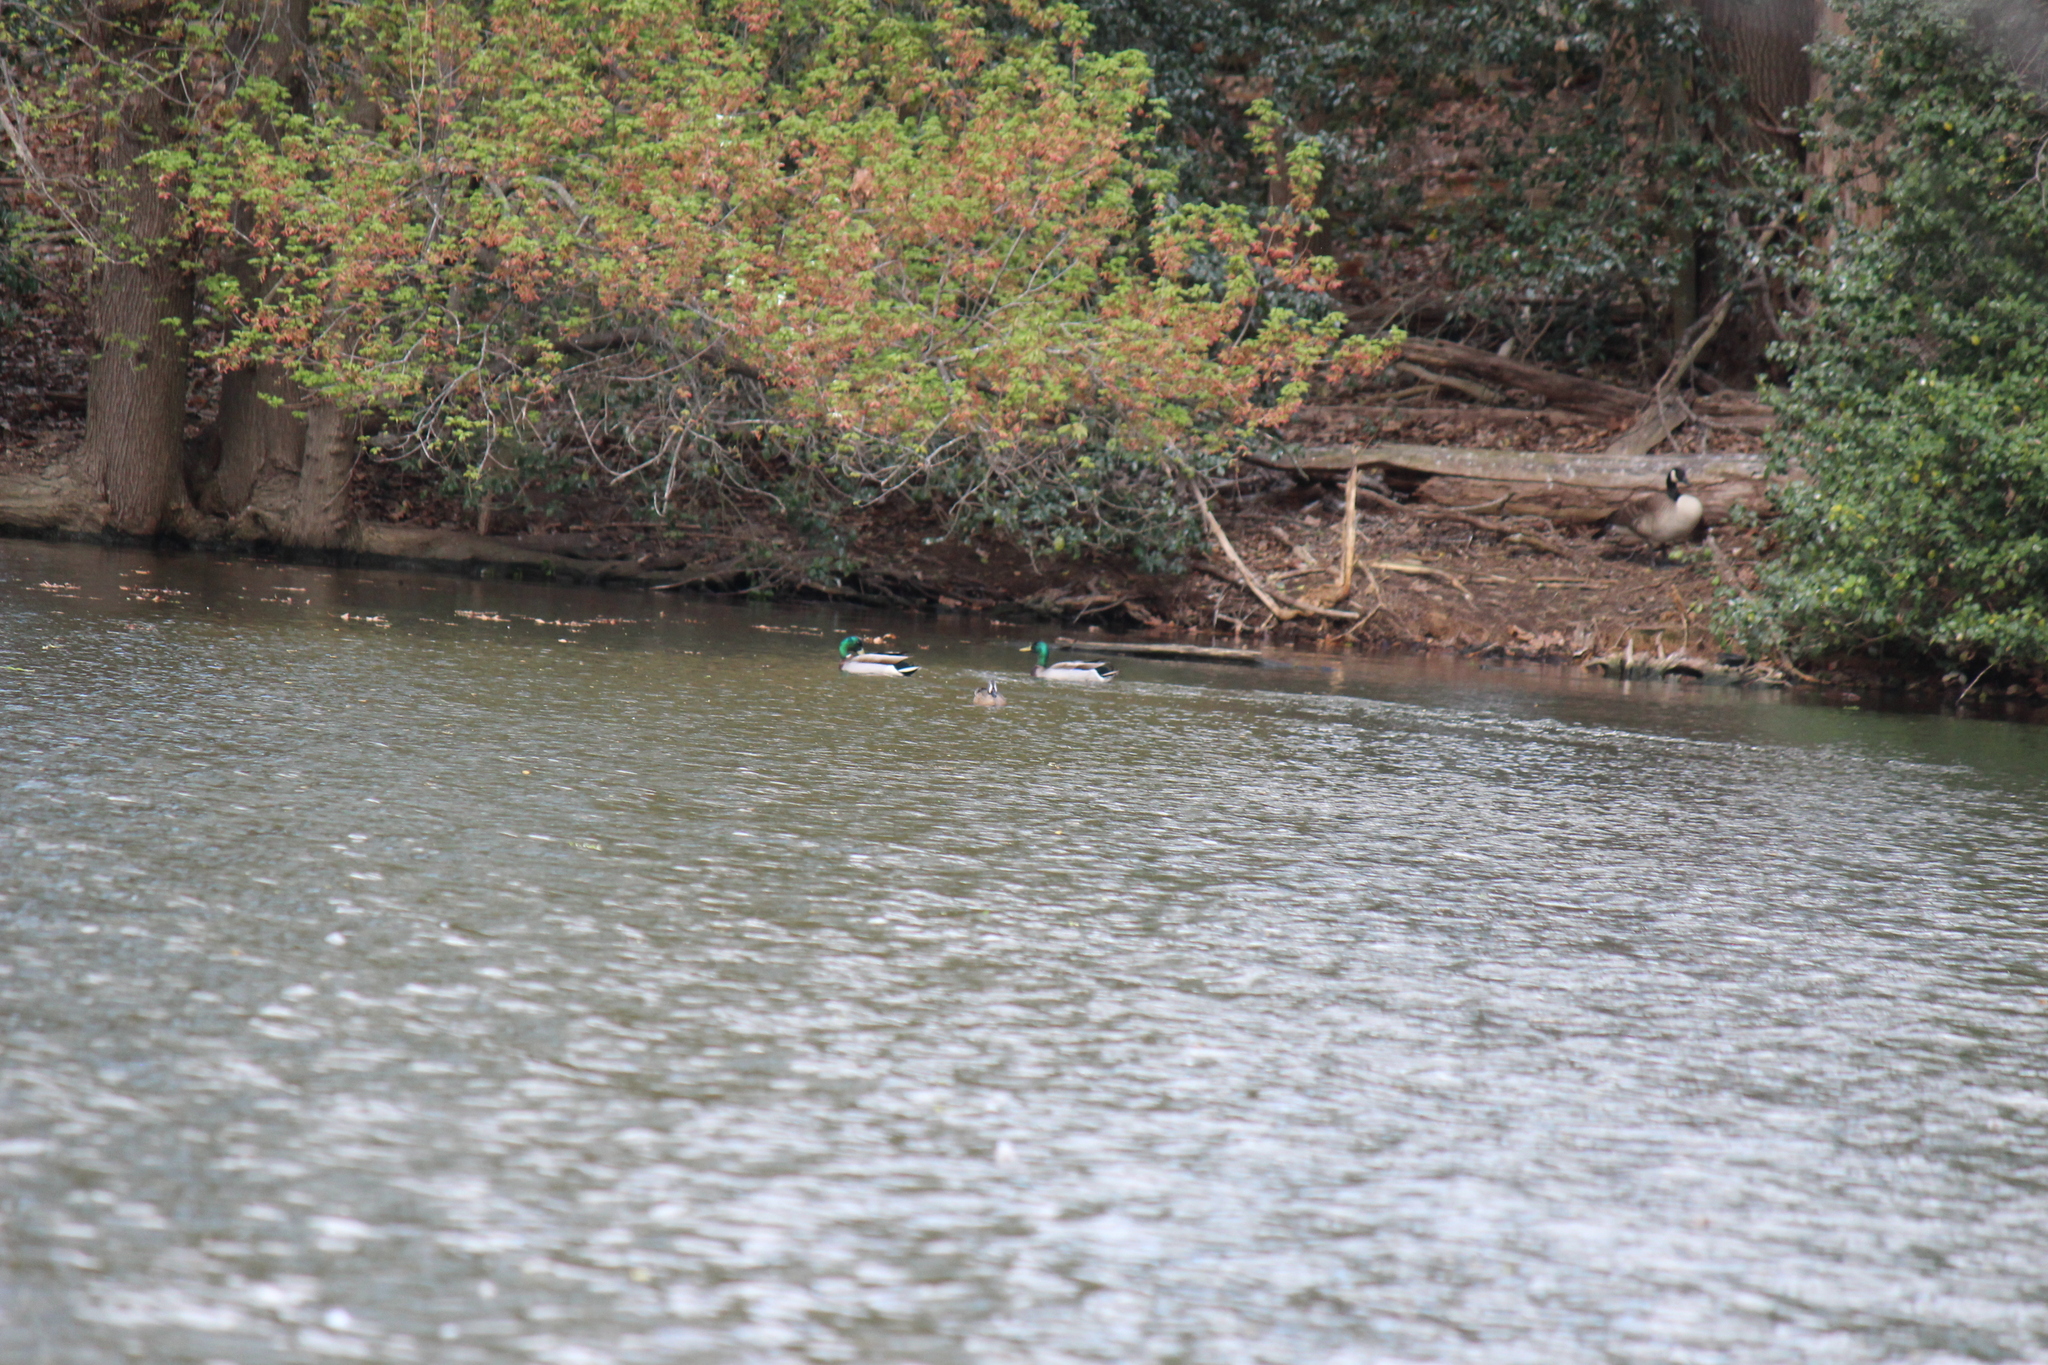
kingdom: Animalia
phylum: Chordata
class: Aves
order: Anseriformes
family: Anatidae
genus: Anas
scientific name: Anas platyrhynchos
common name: Mallard
